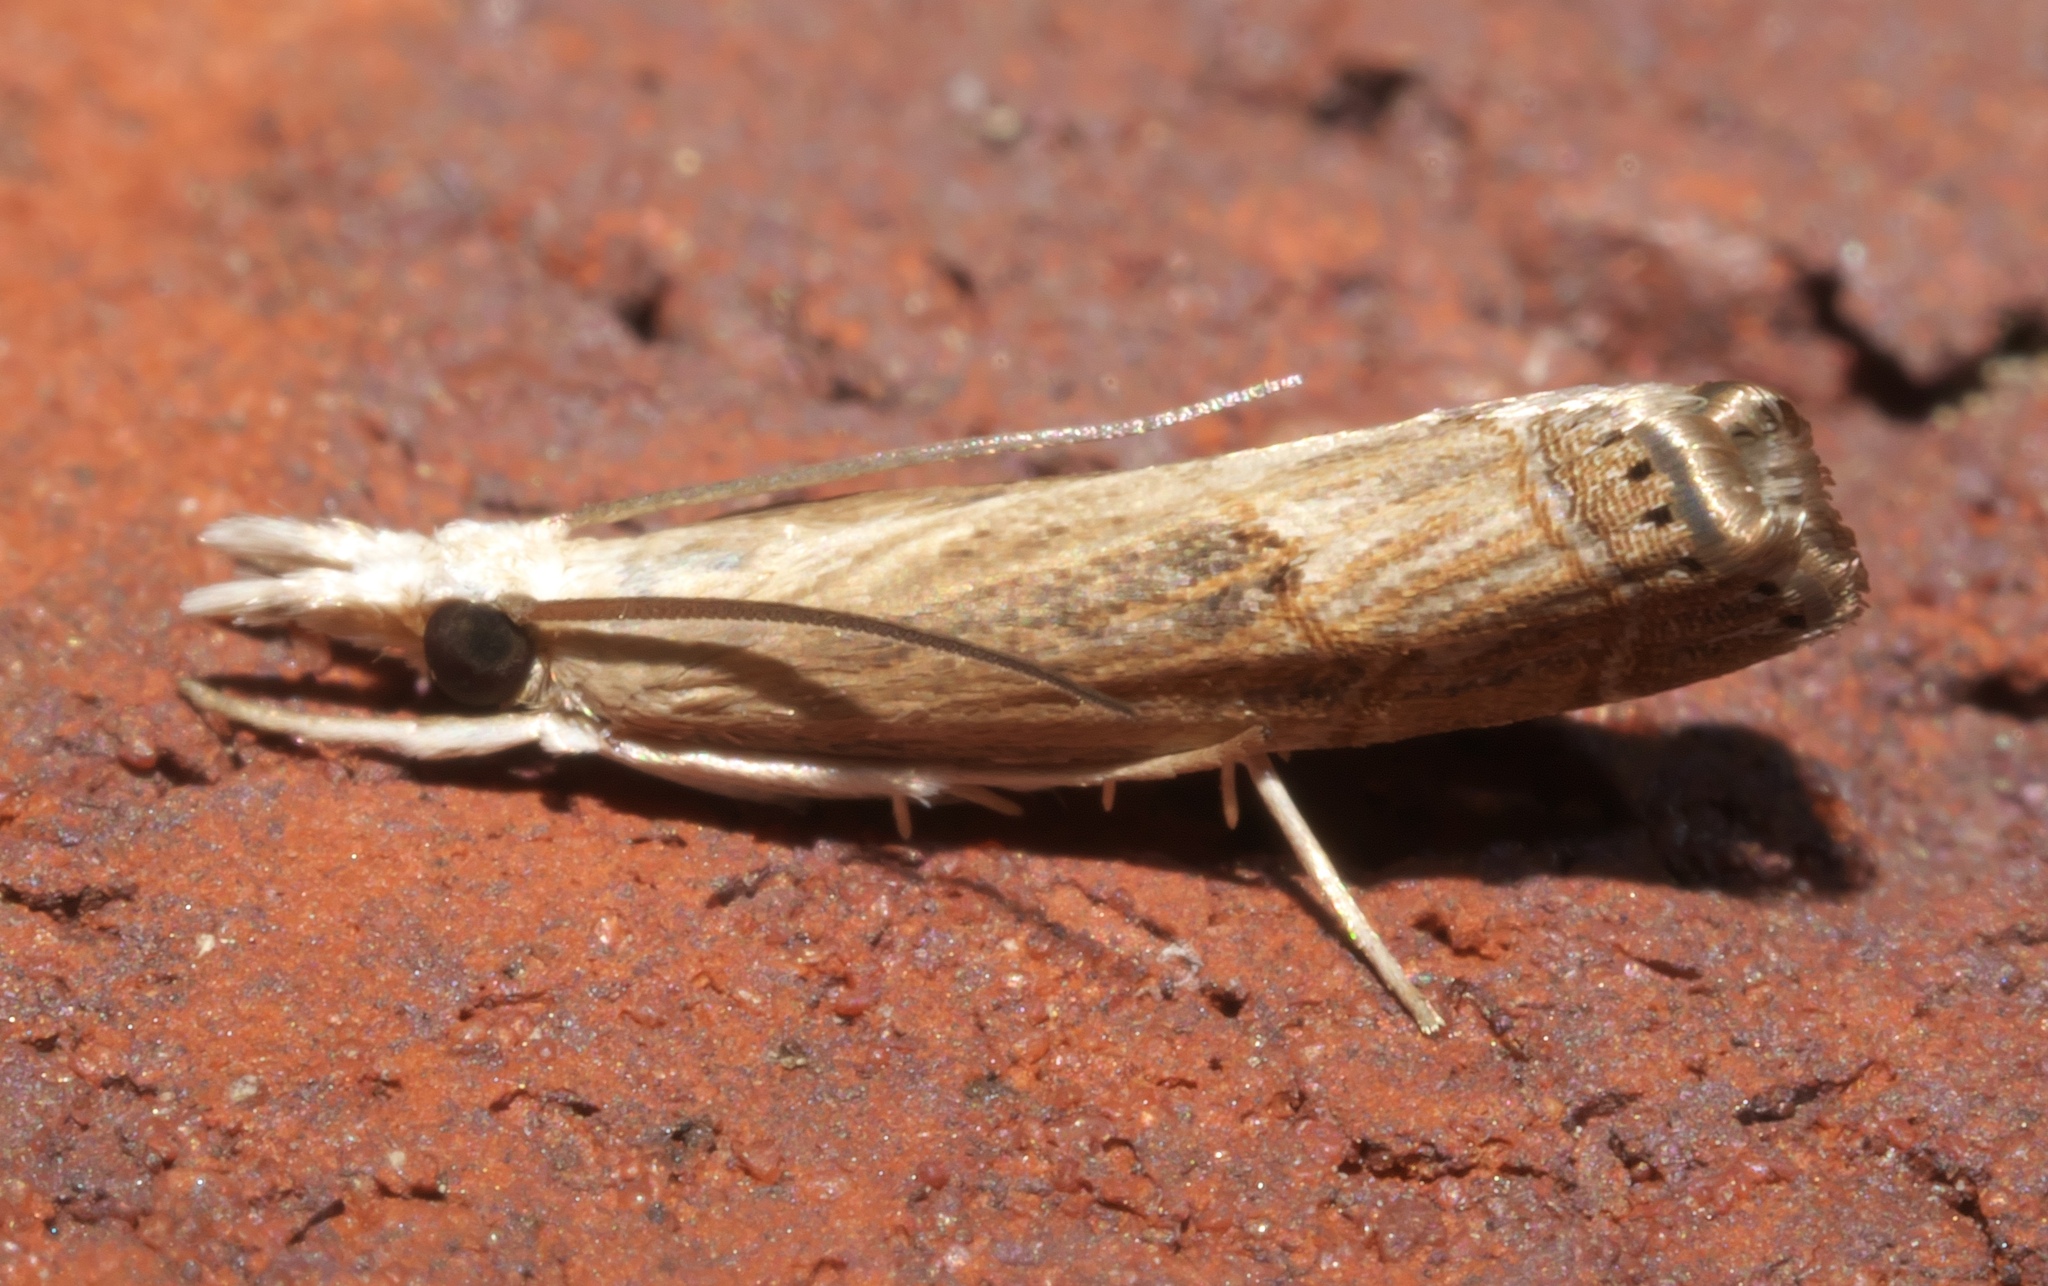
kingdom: Animalia
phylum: Arthropoda
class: Insecta
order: Lepidoptera
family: Crambidae
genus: Parapediasia
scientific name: Parapediasia teterellus
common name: Bluegrass webworm moth
